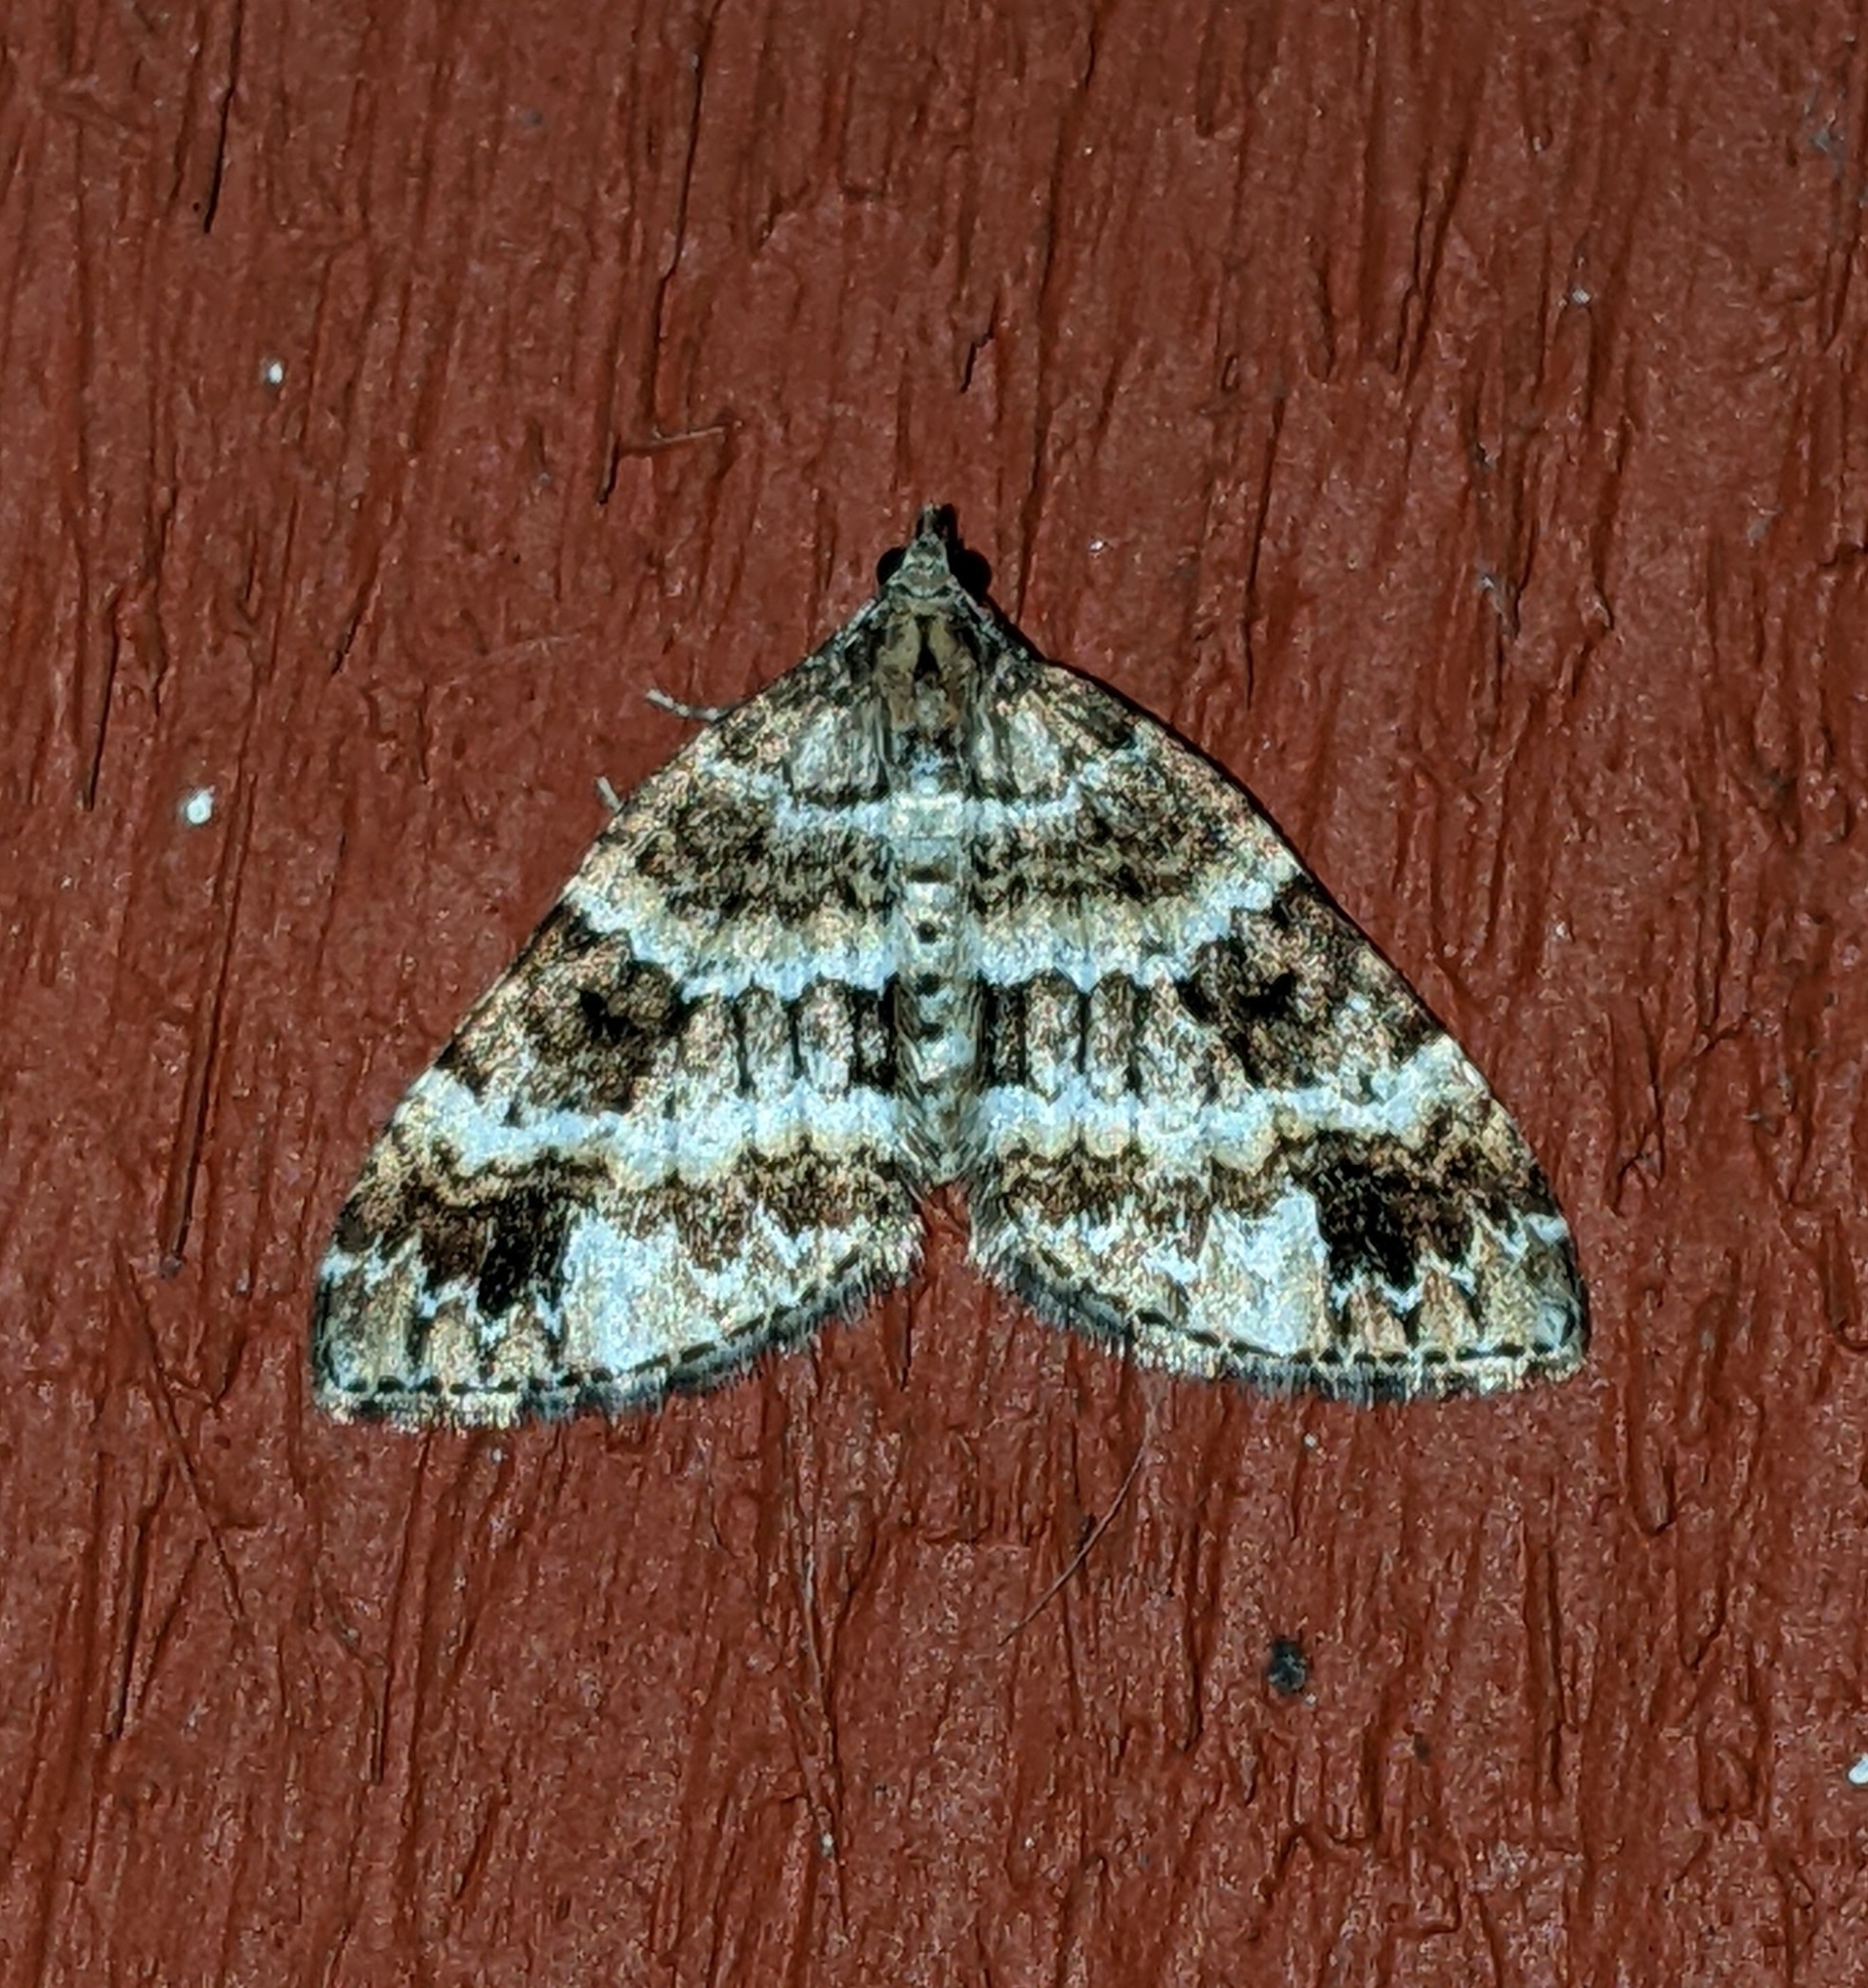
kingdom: Animalia
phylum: Arthropoda
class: Insecta
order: Lepidoptera
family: Geometridae
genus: Martania
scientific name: Martania
